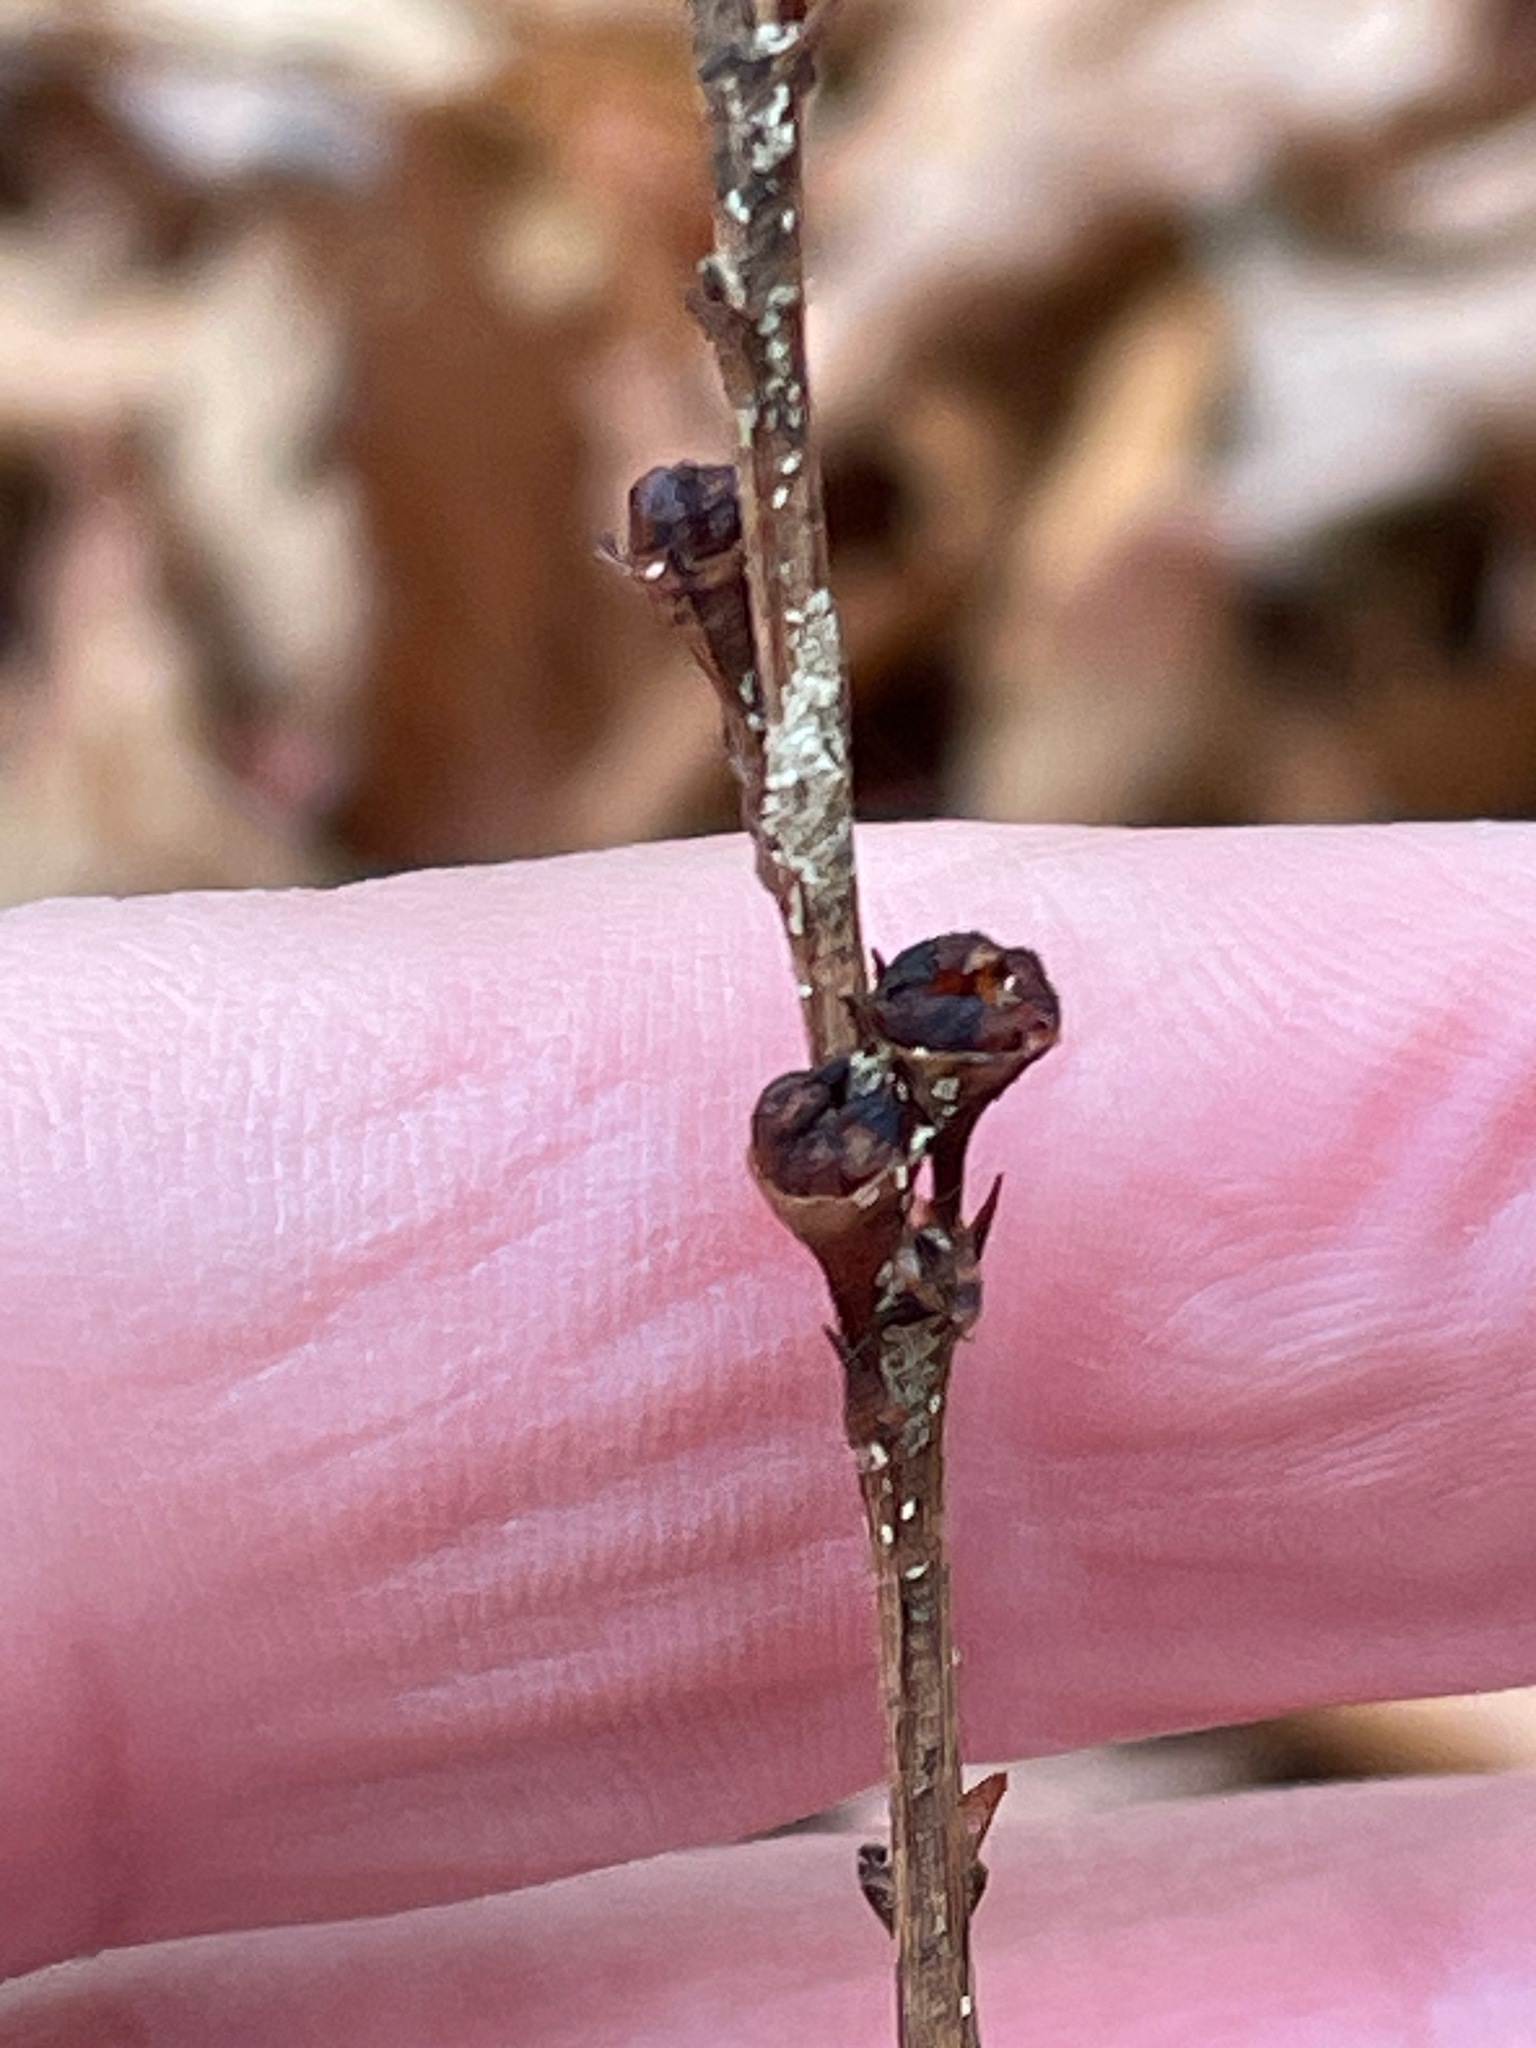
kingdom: Plantae
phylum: Tracheophyta
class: Magnoliopsida
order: Lamiales
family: Orobanchaceae
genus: Epifagus
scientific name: Epifagus virginiana
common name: Beechdrops
